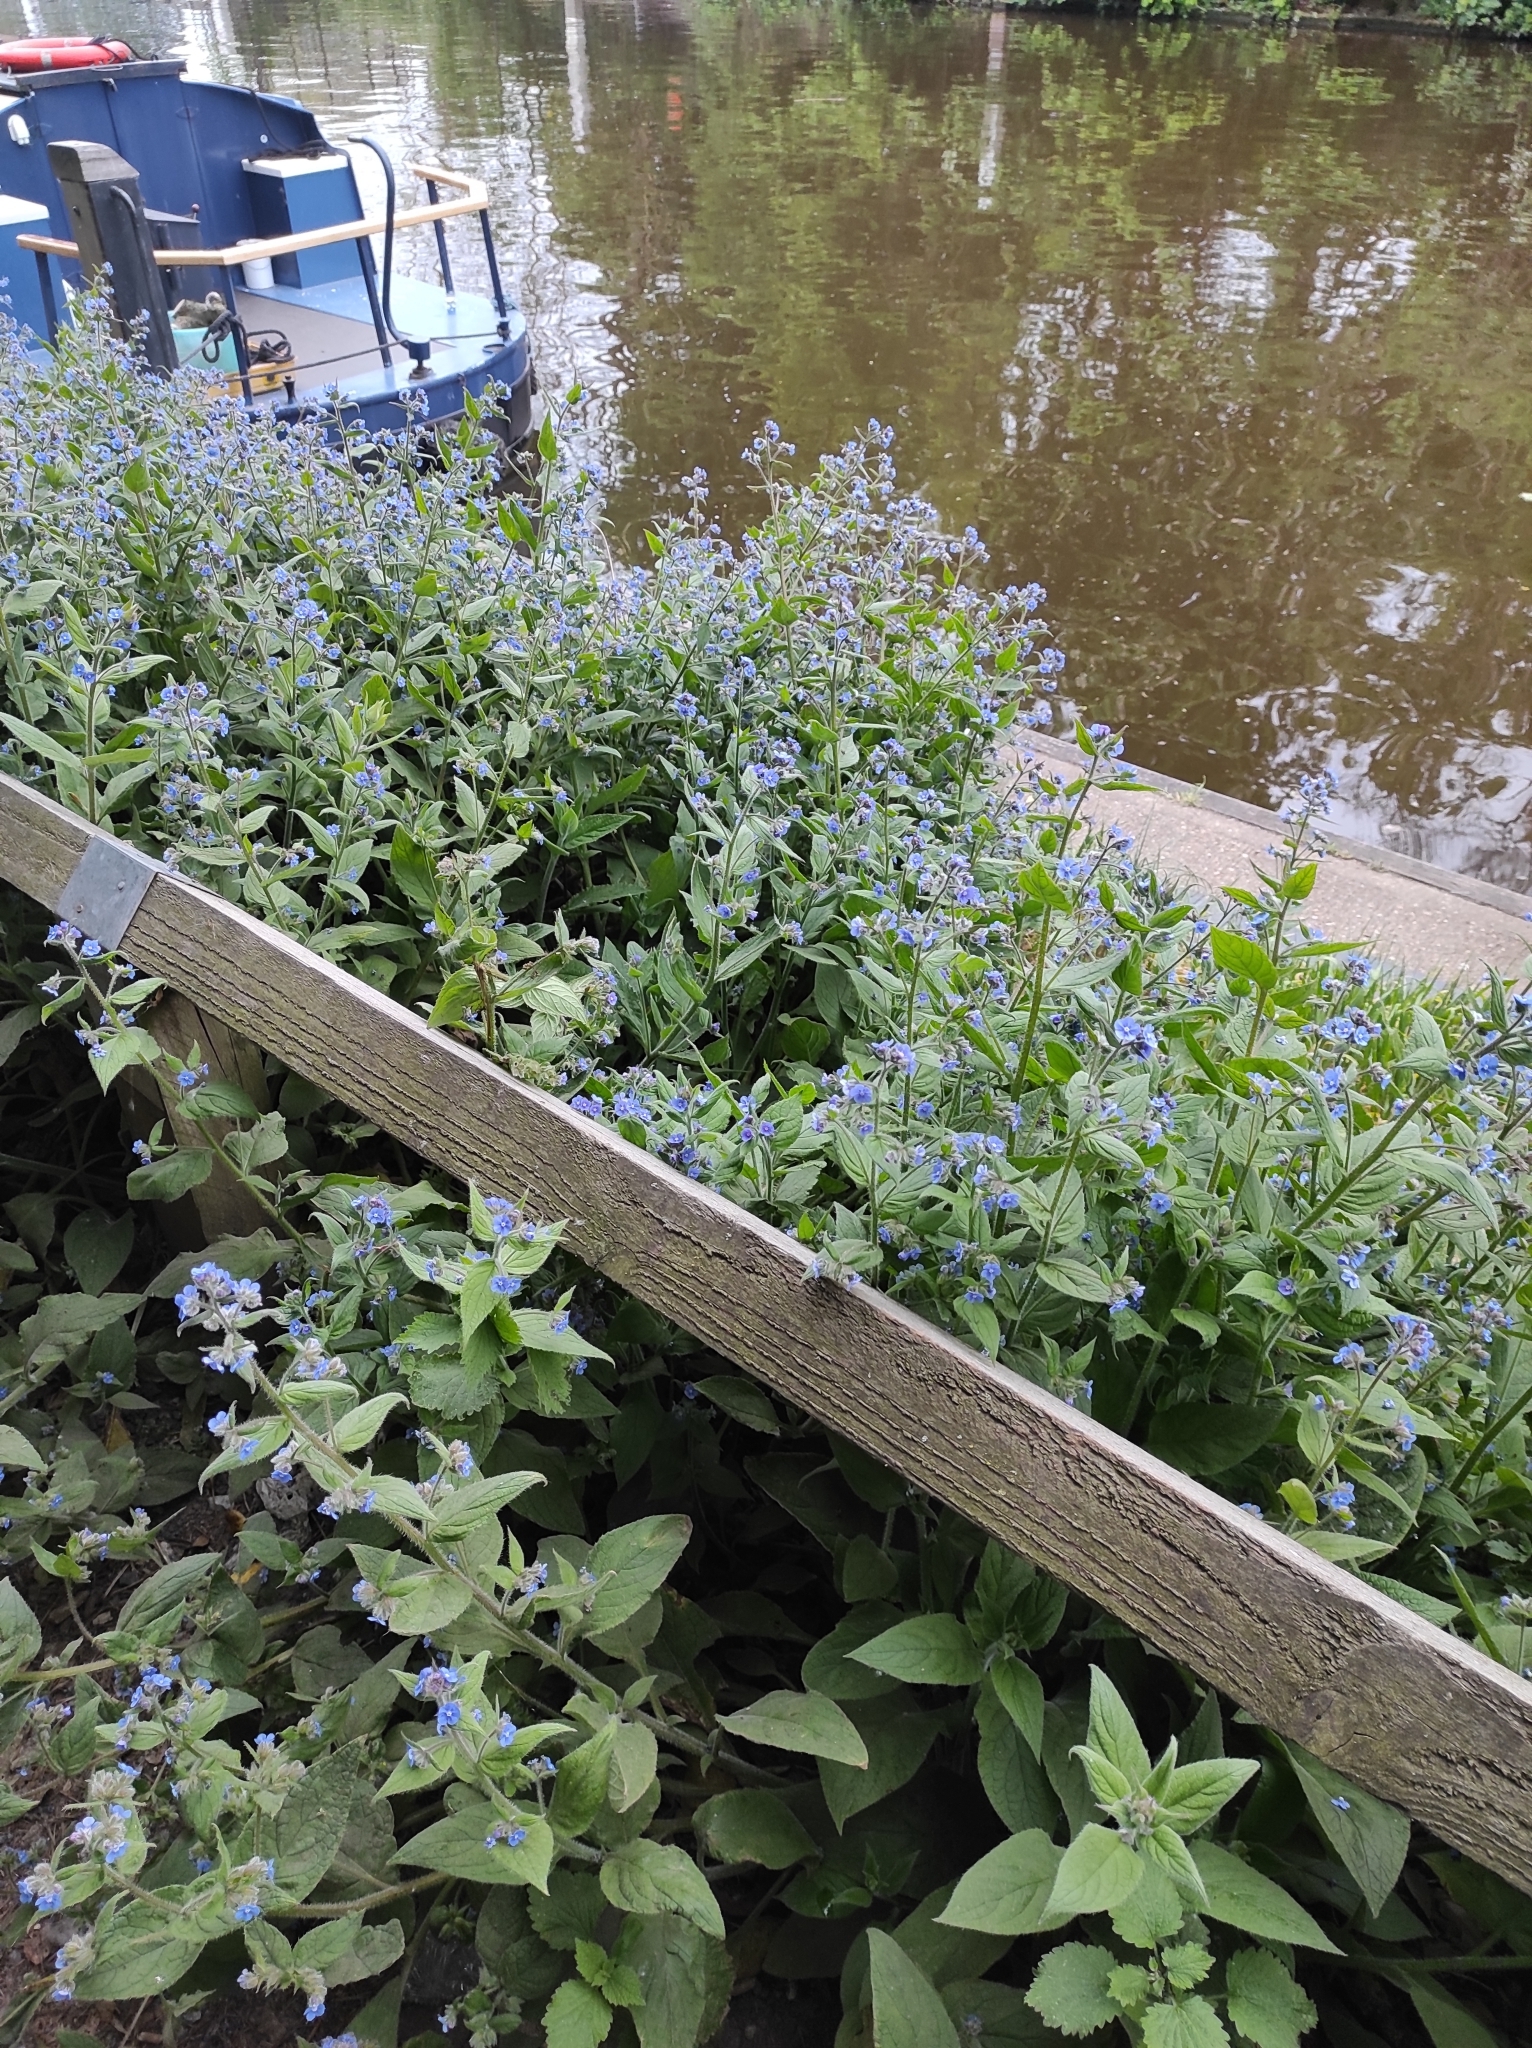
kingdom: Plantae
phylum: Tracheophyta
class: Magnoliopsida
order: Boraginales
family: Boraginaceae
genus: Pentaglottis
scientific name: Pentaglottis sempervirens
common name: Green alkanet
